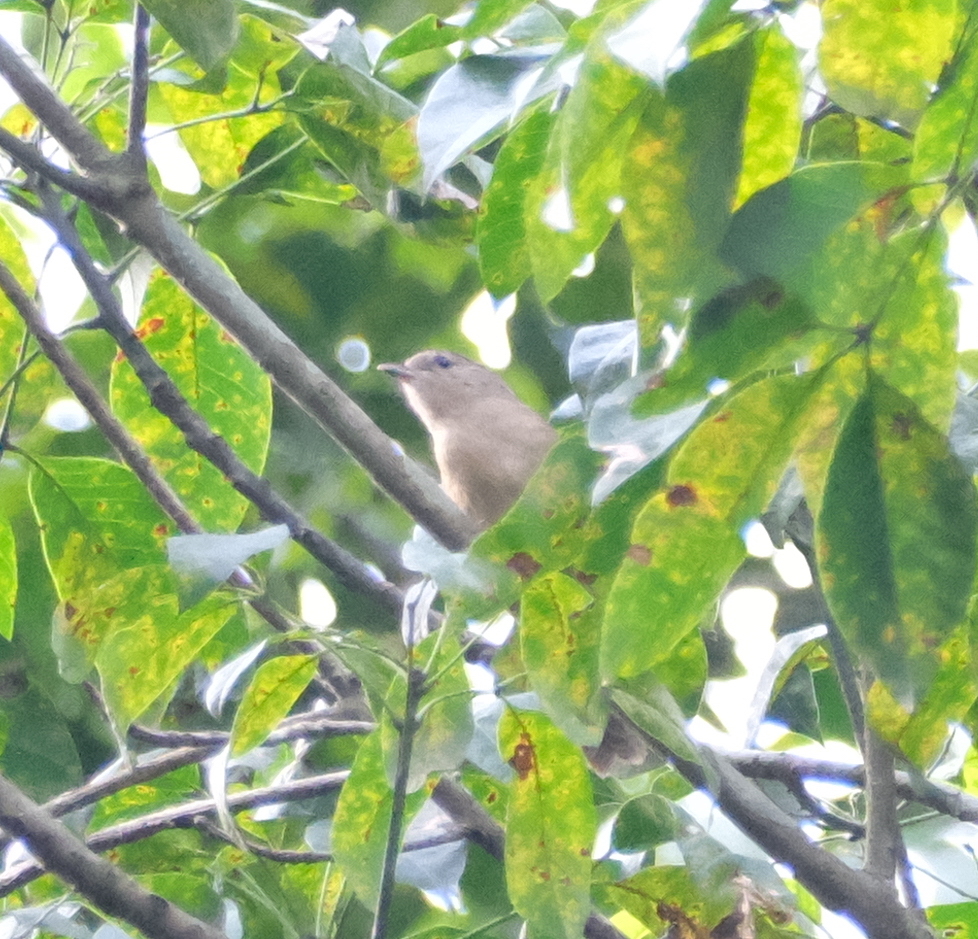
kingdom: Animalia
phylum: Chordata
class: Aves
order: Passeriformes
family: Pellorneidae
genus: Alcippe
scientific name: Alcippe poioicephala
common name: Brown-cheeked fulvetta
